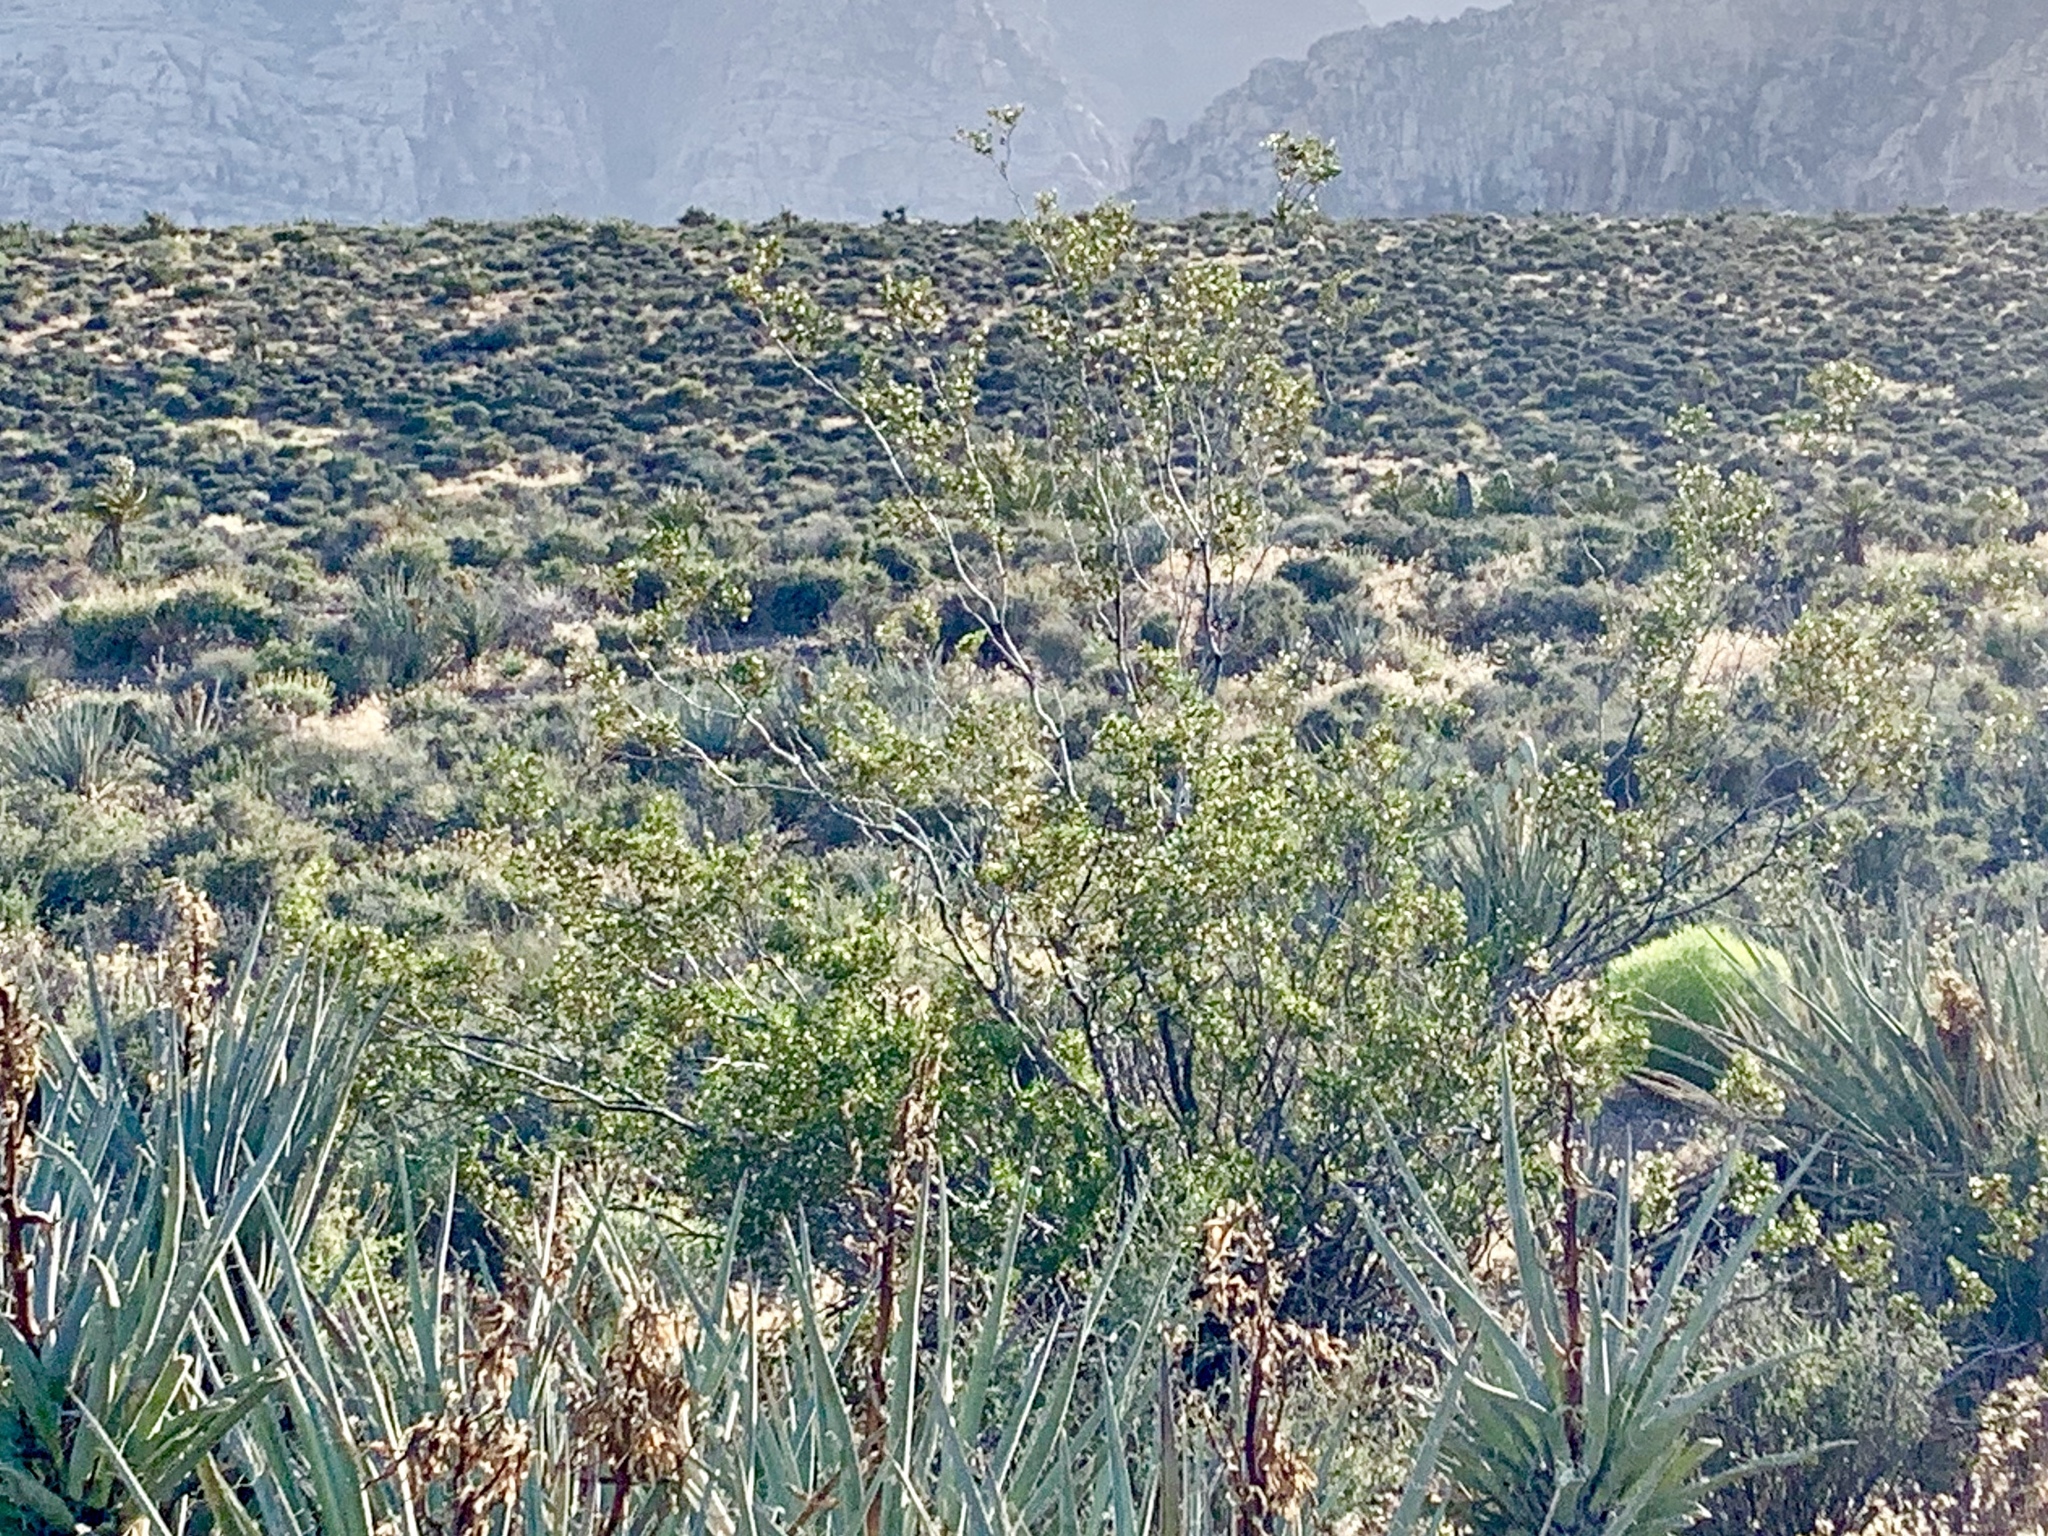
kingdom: Plantae
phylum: Tracheophyta
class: Magnoliopsida
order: Zygophyllales
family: Zygophyllaceae
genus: Larrea
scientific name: Larrea tridentata
